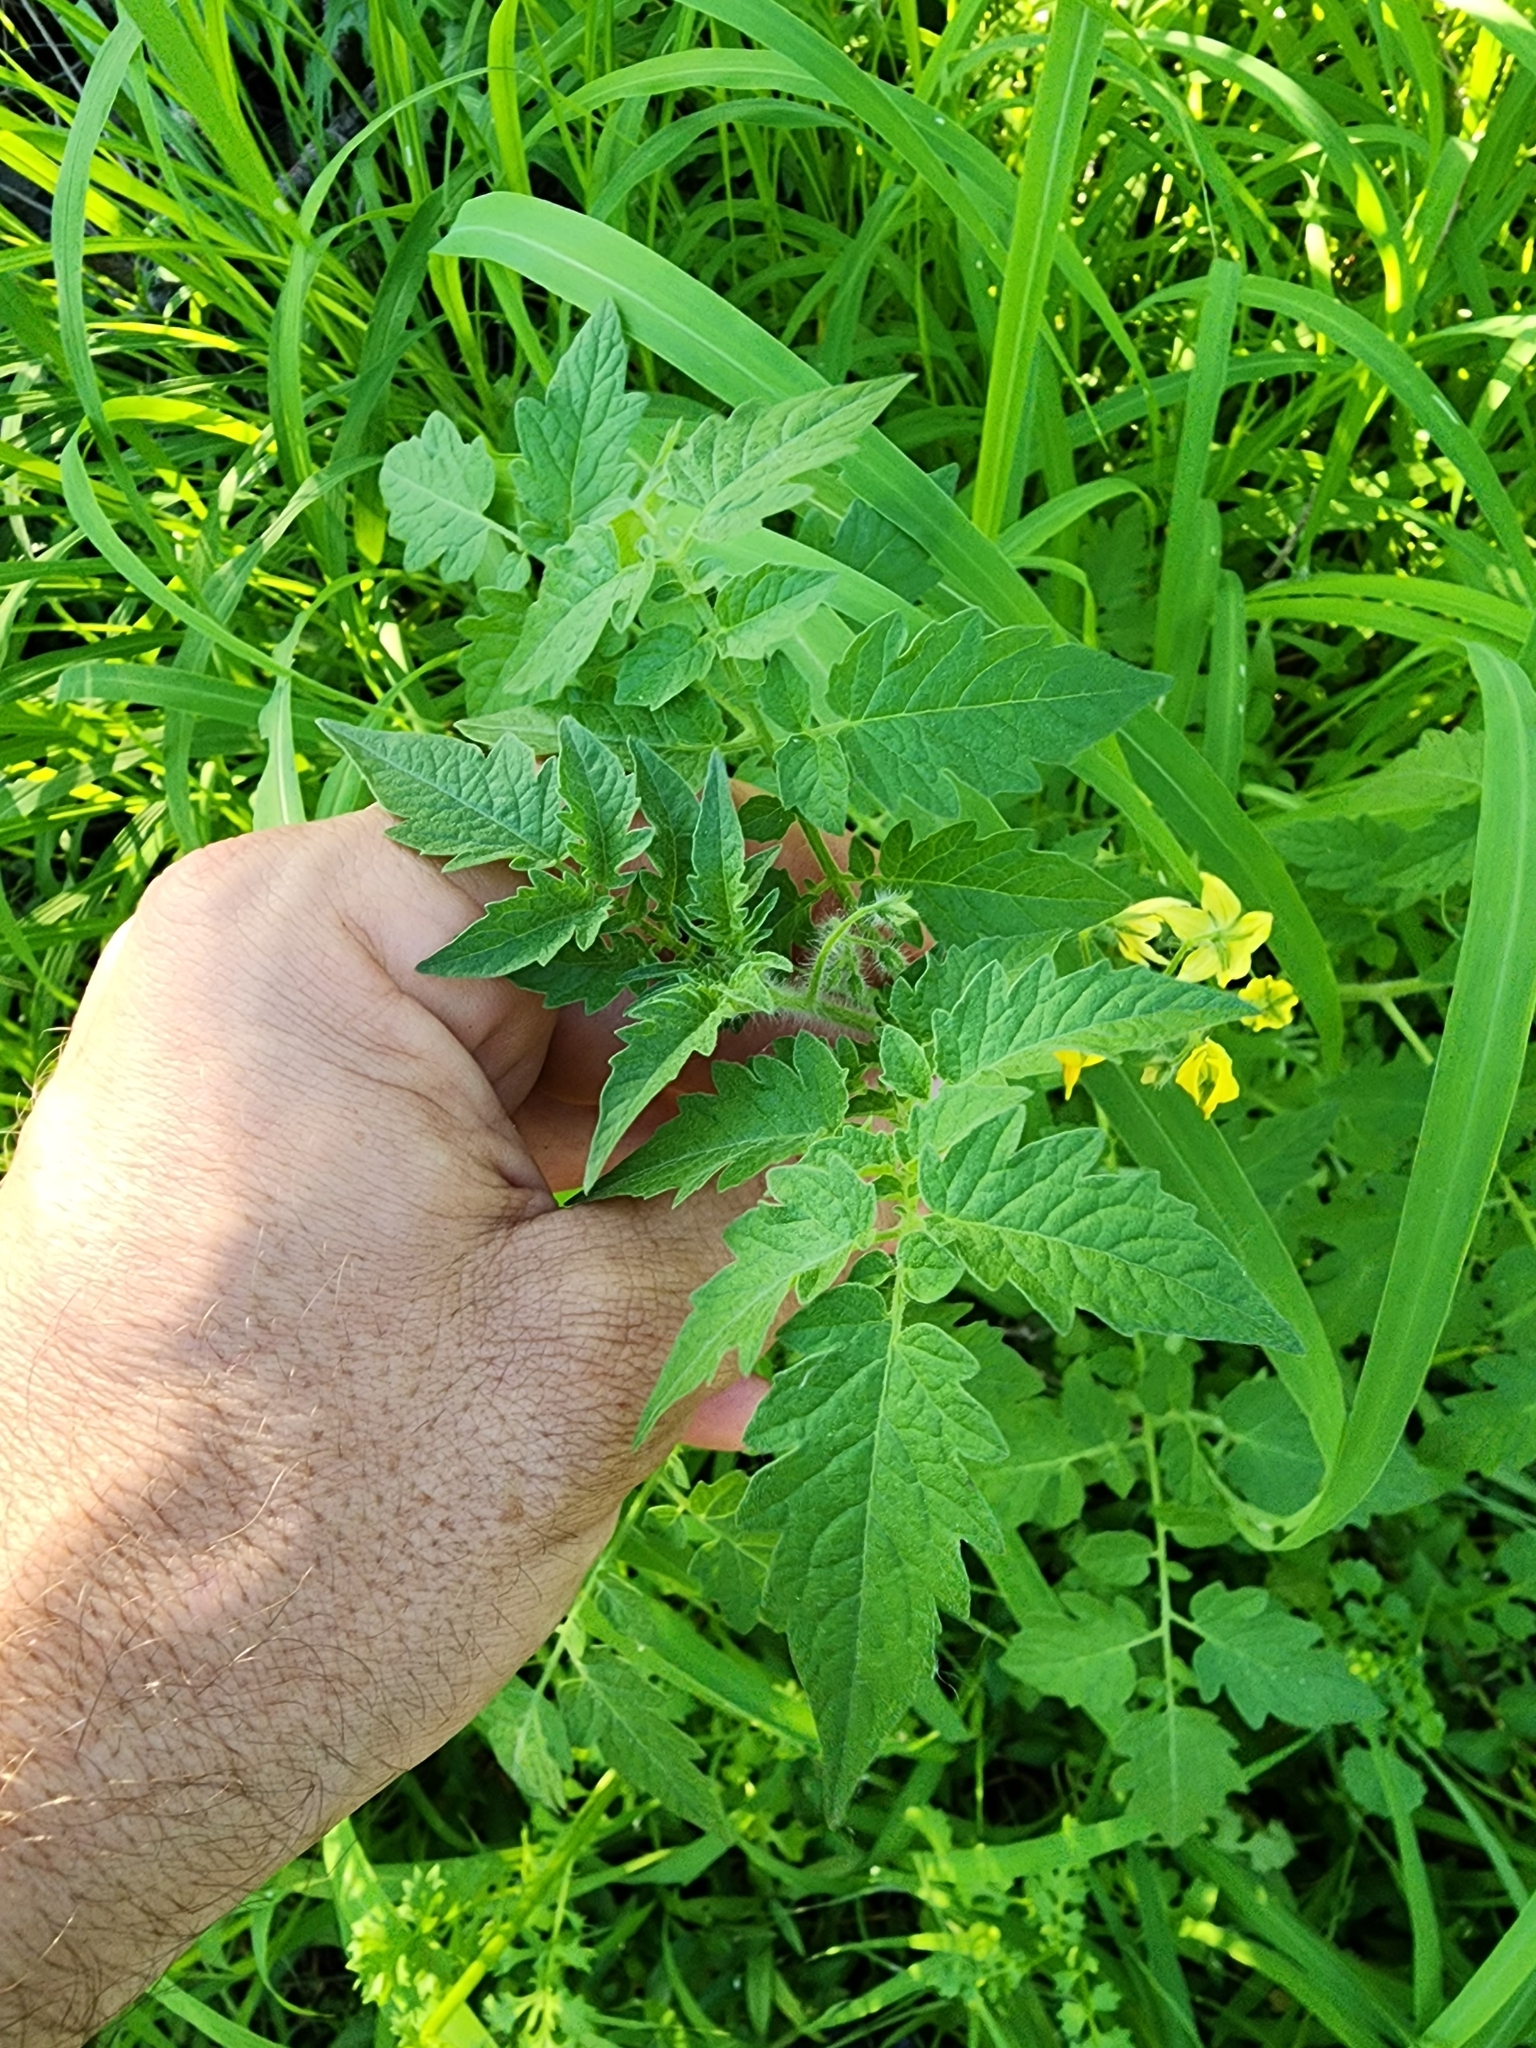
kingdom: Plantae
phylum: Tracheophyta
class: Magnoliopsida
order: Solanales
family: Solanaceae
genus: Solanum
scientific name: Solanum lycopersicum
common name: Garden tomato
